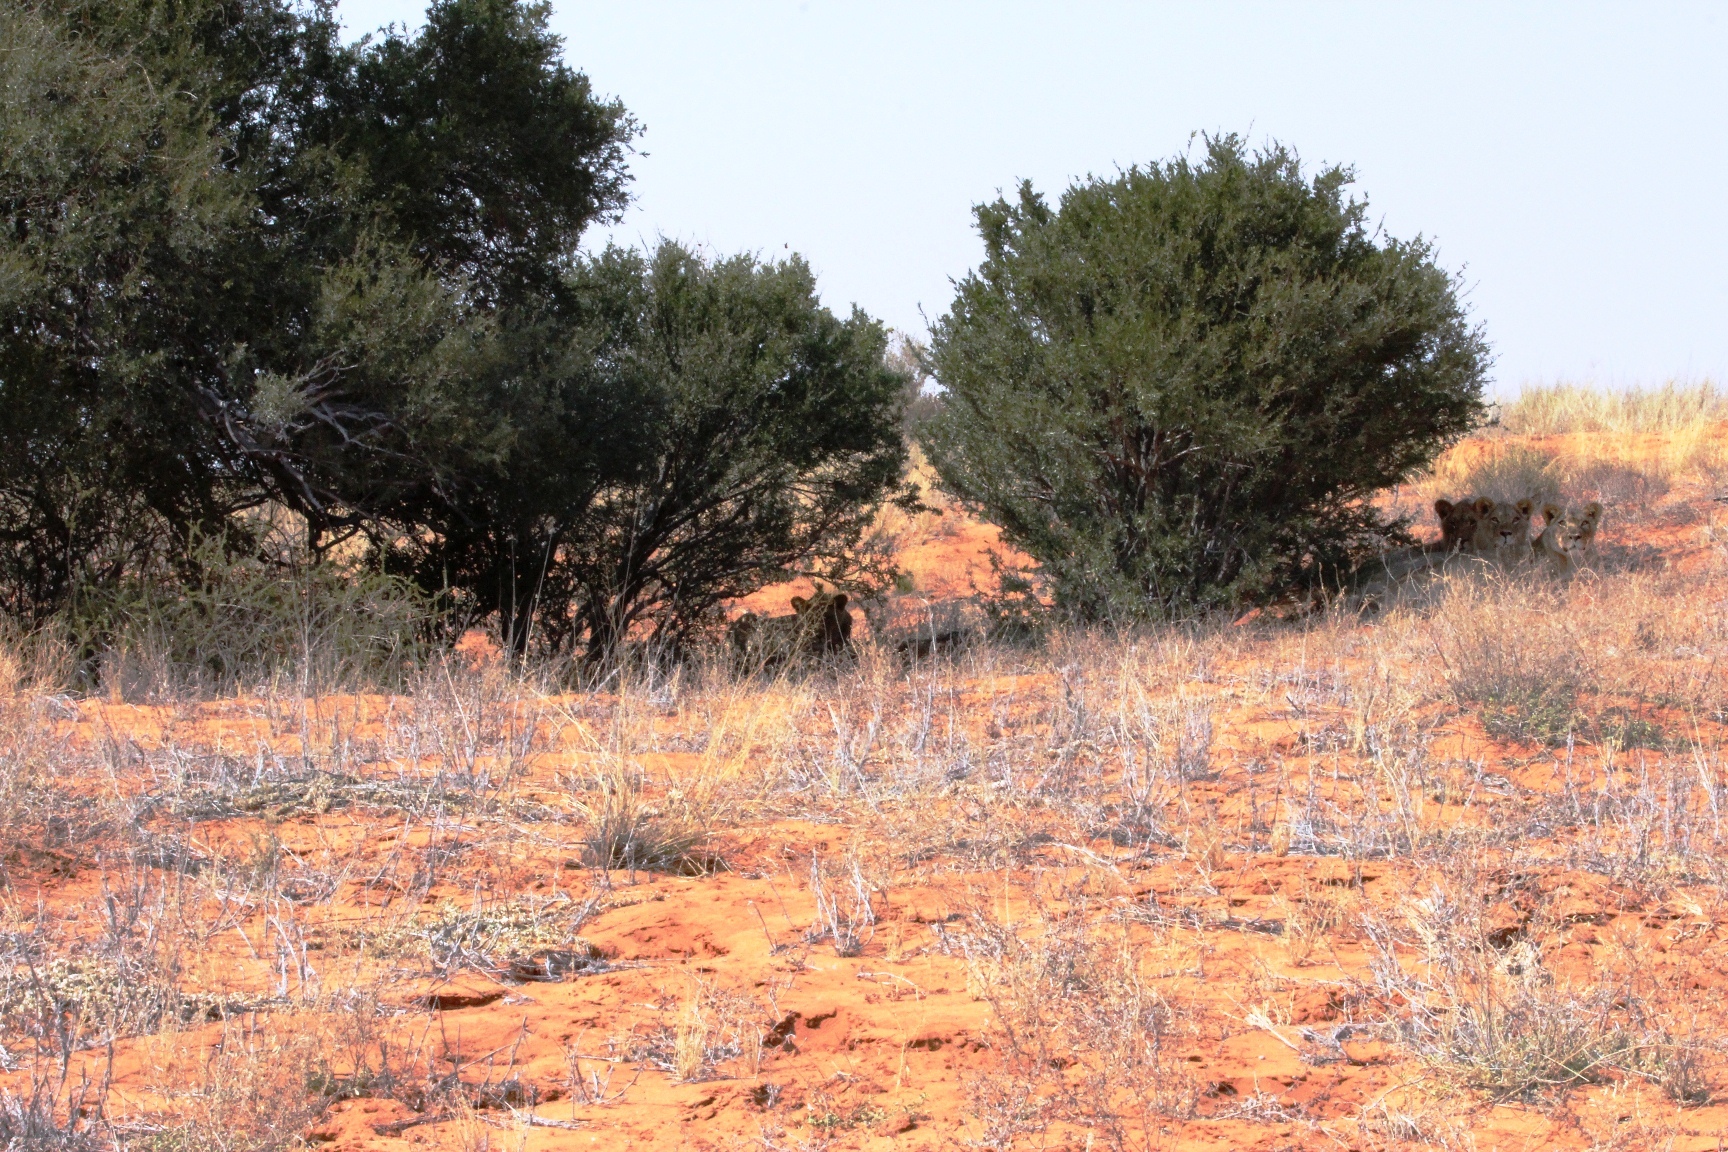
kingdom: Plantae
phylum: Tracheophyta
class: Magnoliopsida
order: Brassicales
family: Capparaceae
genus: Boscia
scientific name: Boscia albitrunca
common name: Caper bush
